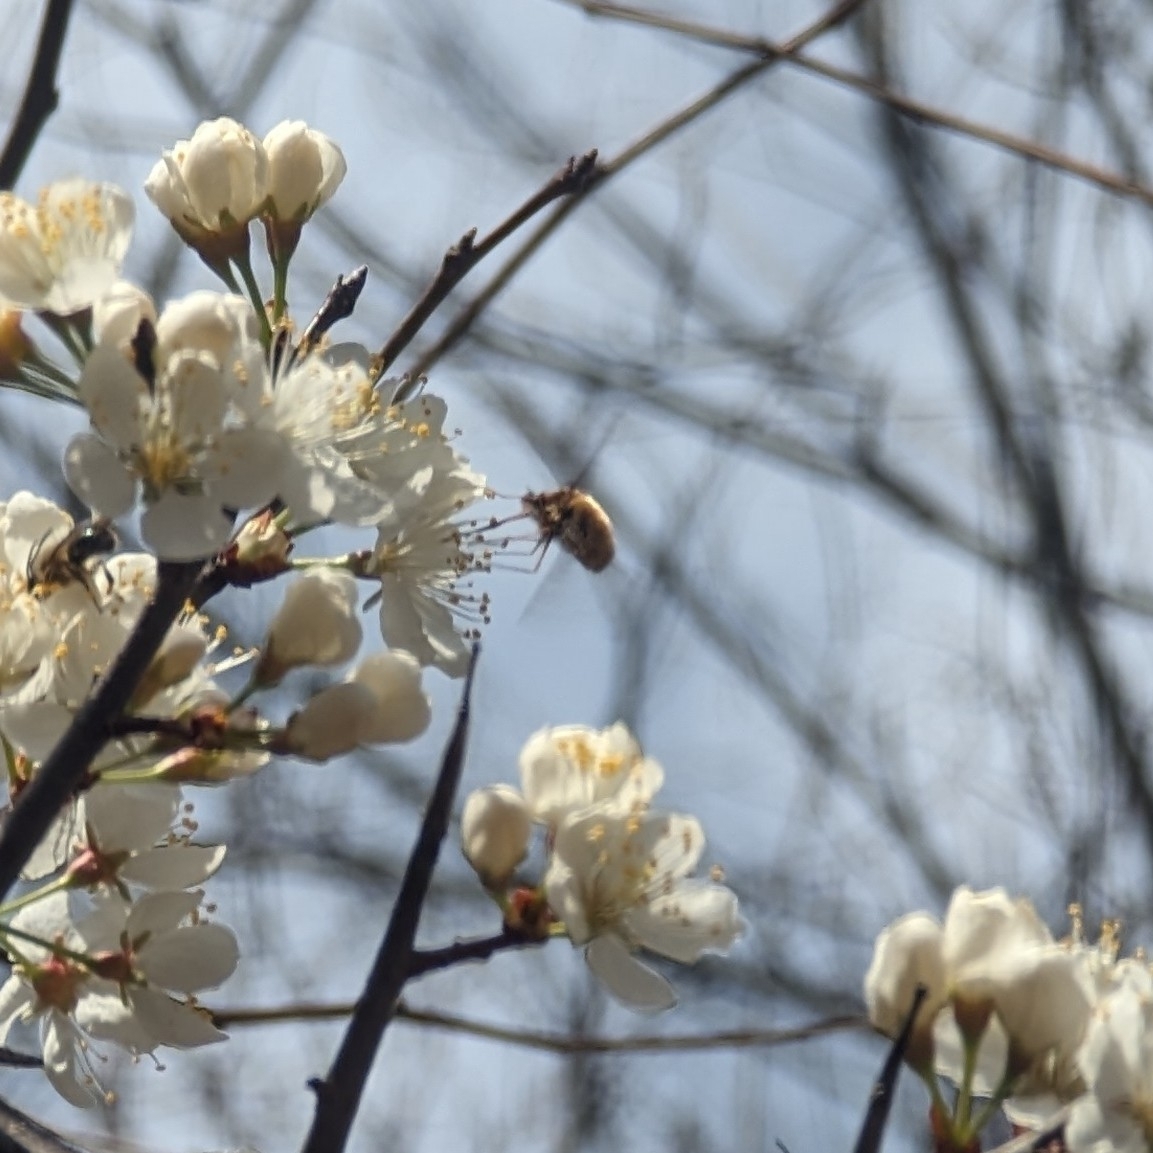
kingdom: Animalia
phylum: Arthropoda
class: Insecta
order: Diptera
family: Bombyliidae
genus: Bombylius
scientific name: Bombylius major
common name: Bee fly
